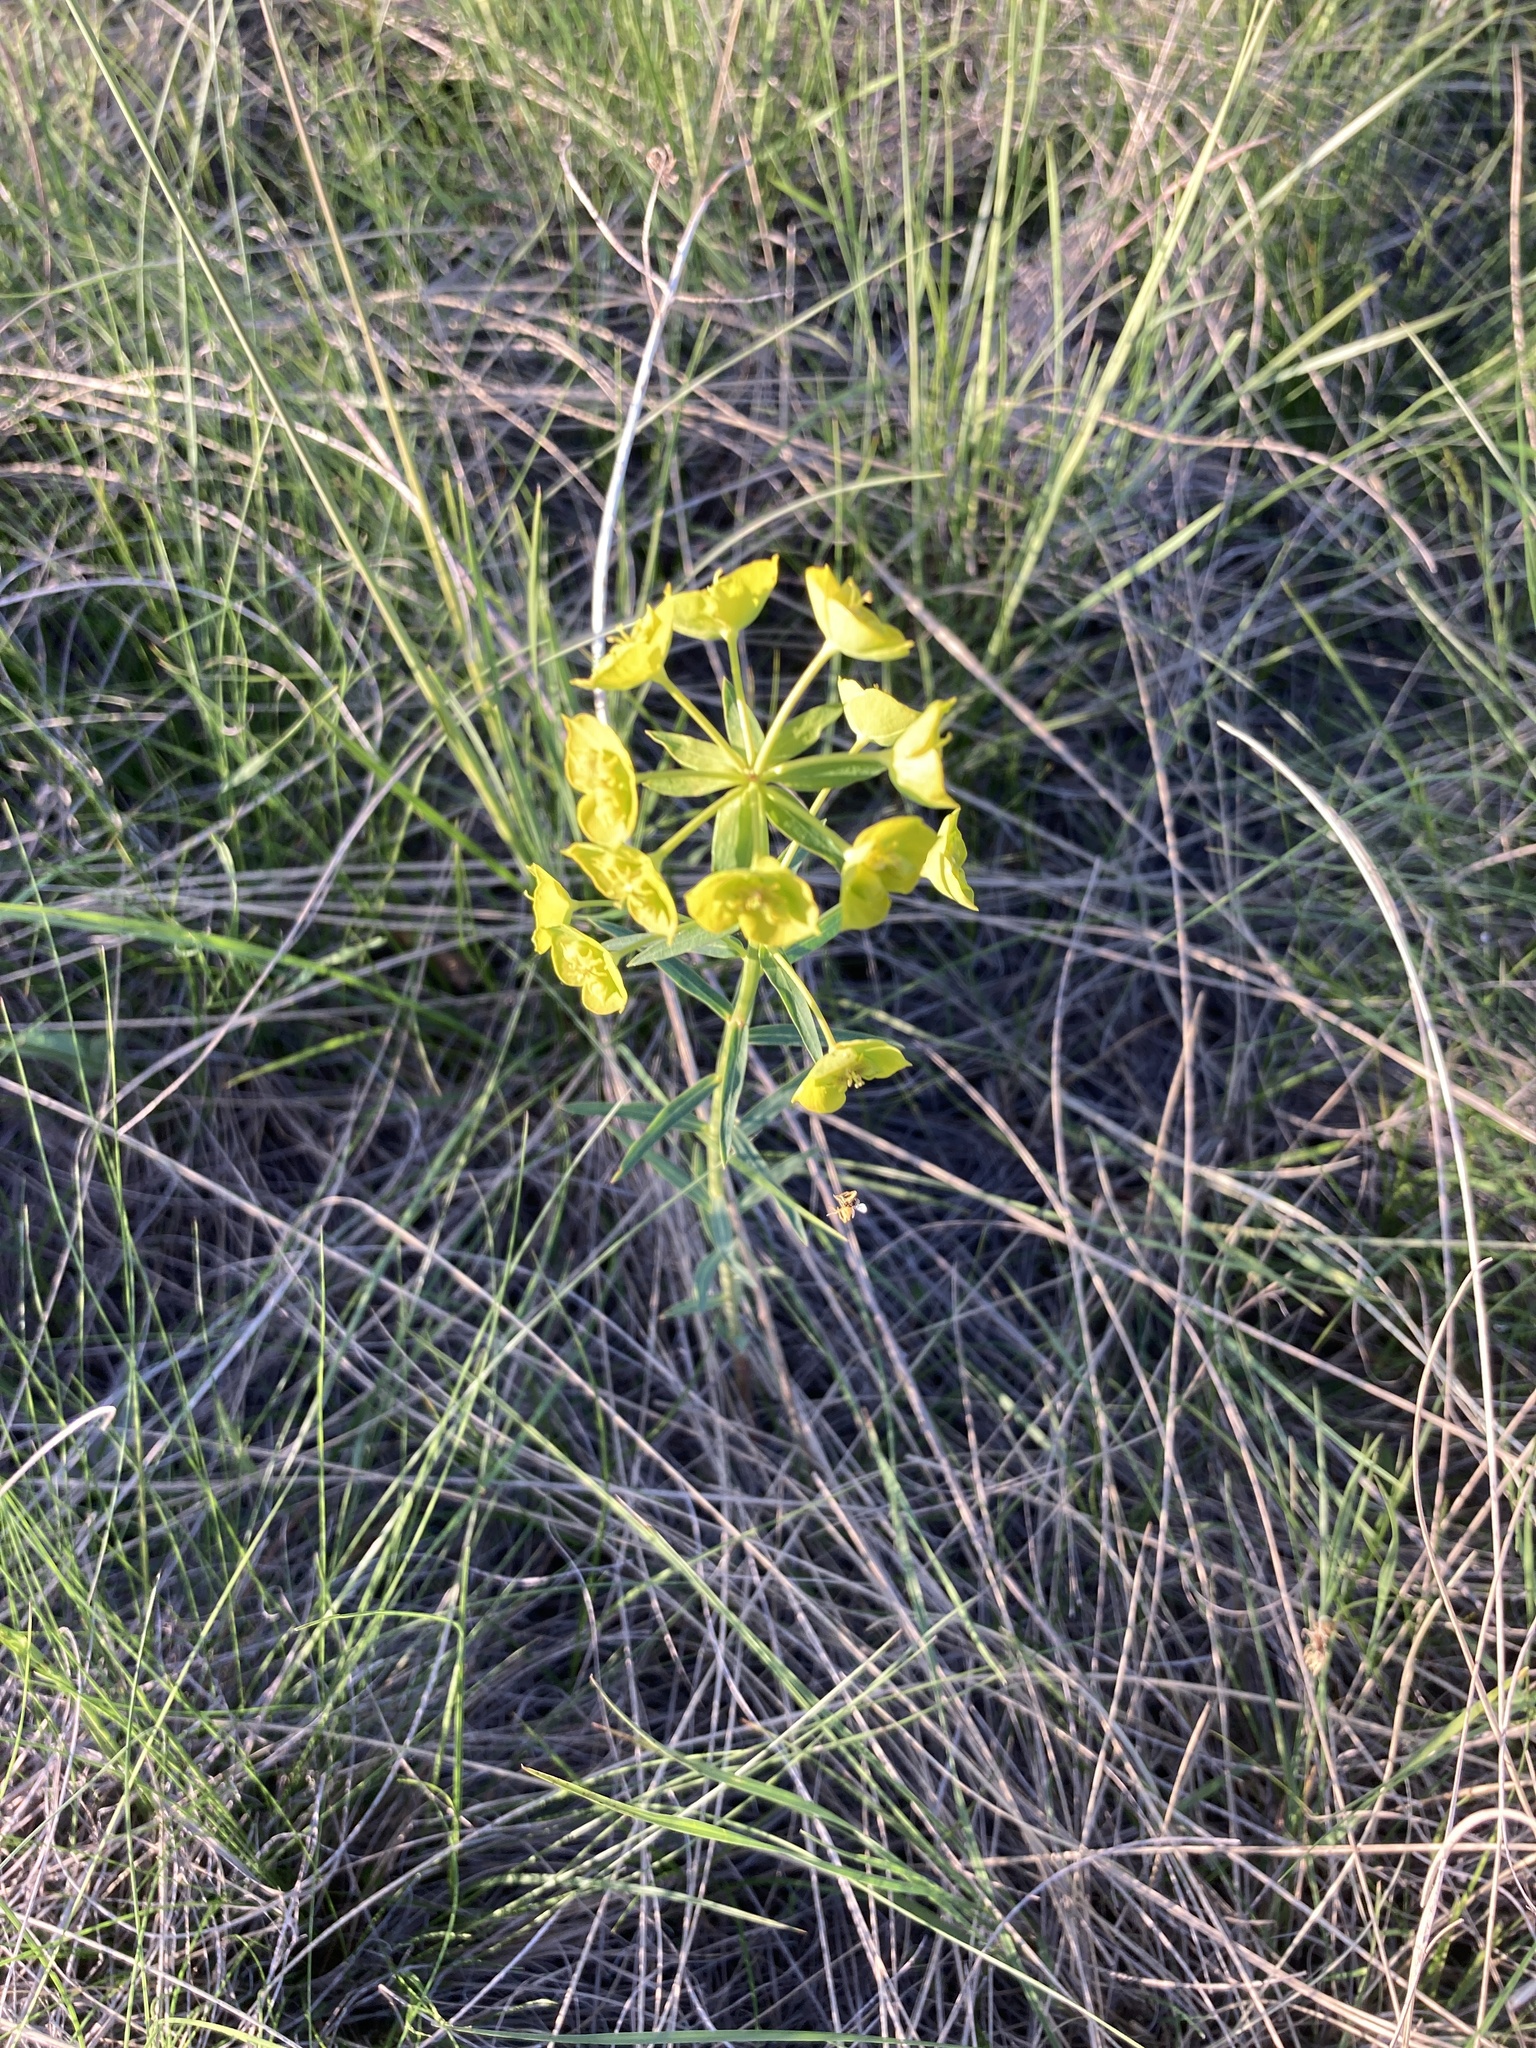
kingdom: Plantae
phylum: Tracheophyta
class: Magnoliopsida
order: Malpighiales
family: Euphorbiaceae
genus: Euphorbia
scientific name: Euphorbia virgata
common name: Leafy spurge
